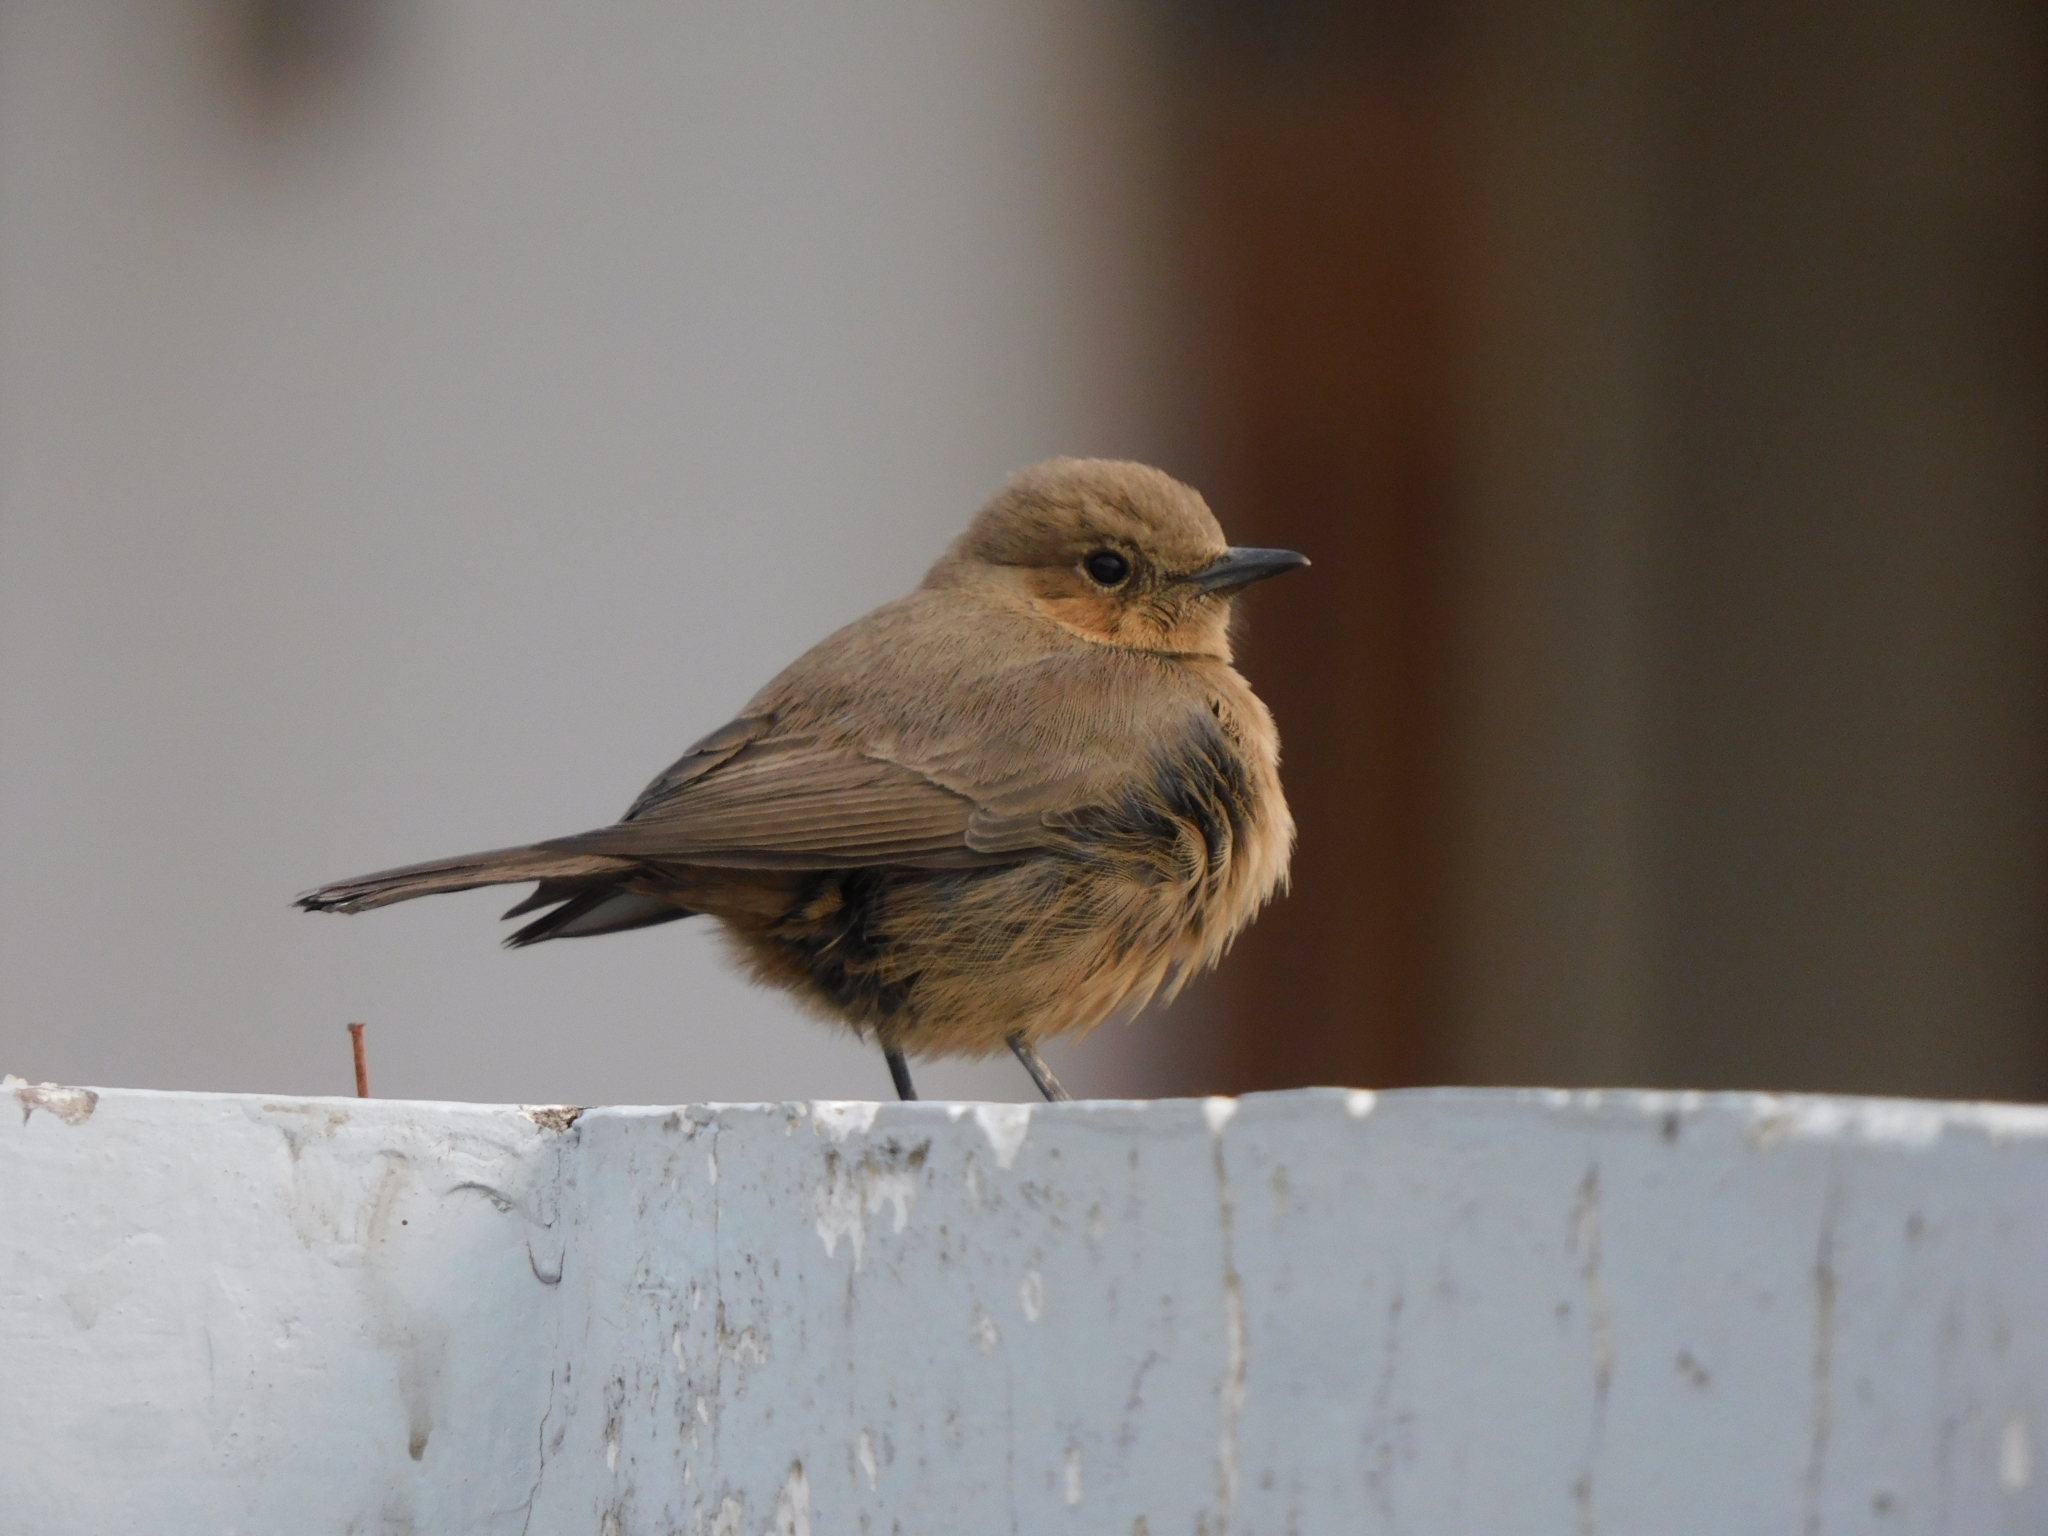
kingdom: Animalia
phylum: Chordata
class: Aves
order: Passeriformes
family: Muscicapidae
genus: Oenanthe
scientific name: Oenanthe fusca
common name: Brown rock chat
